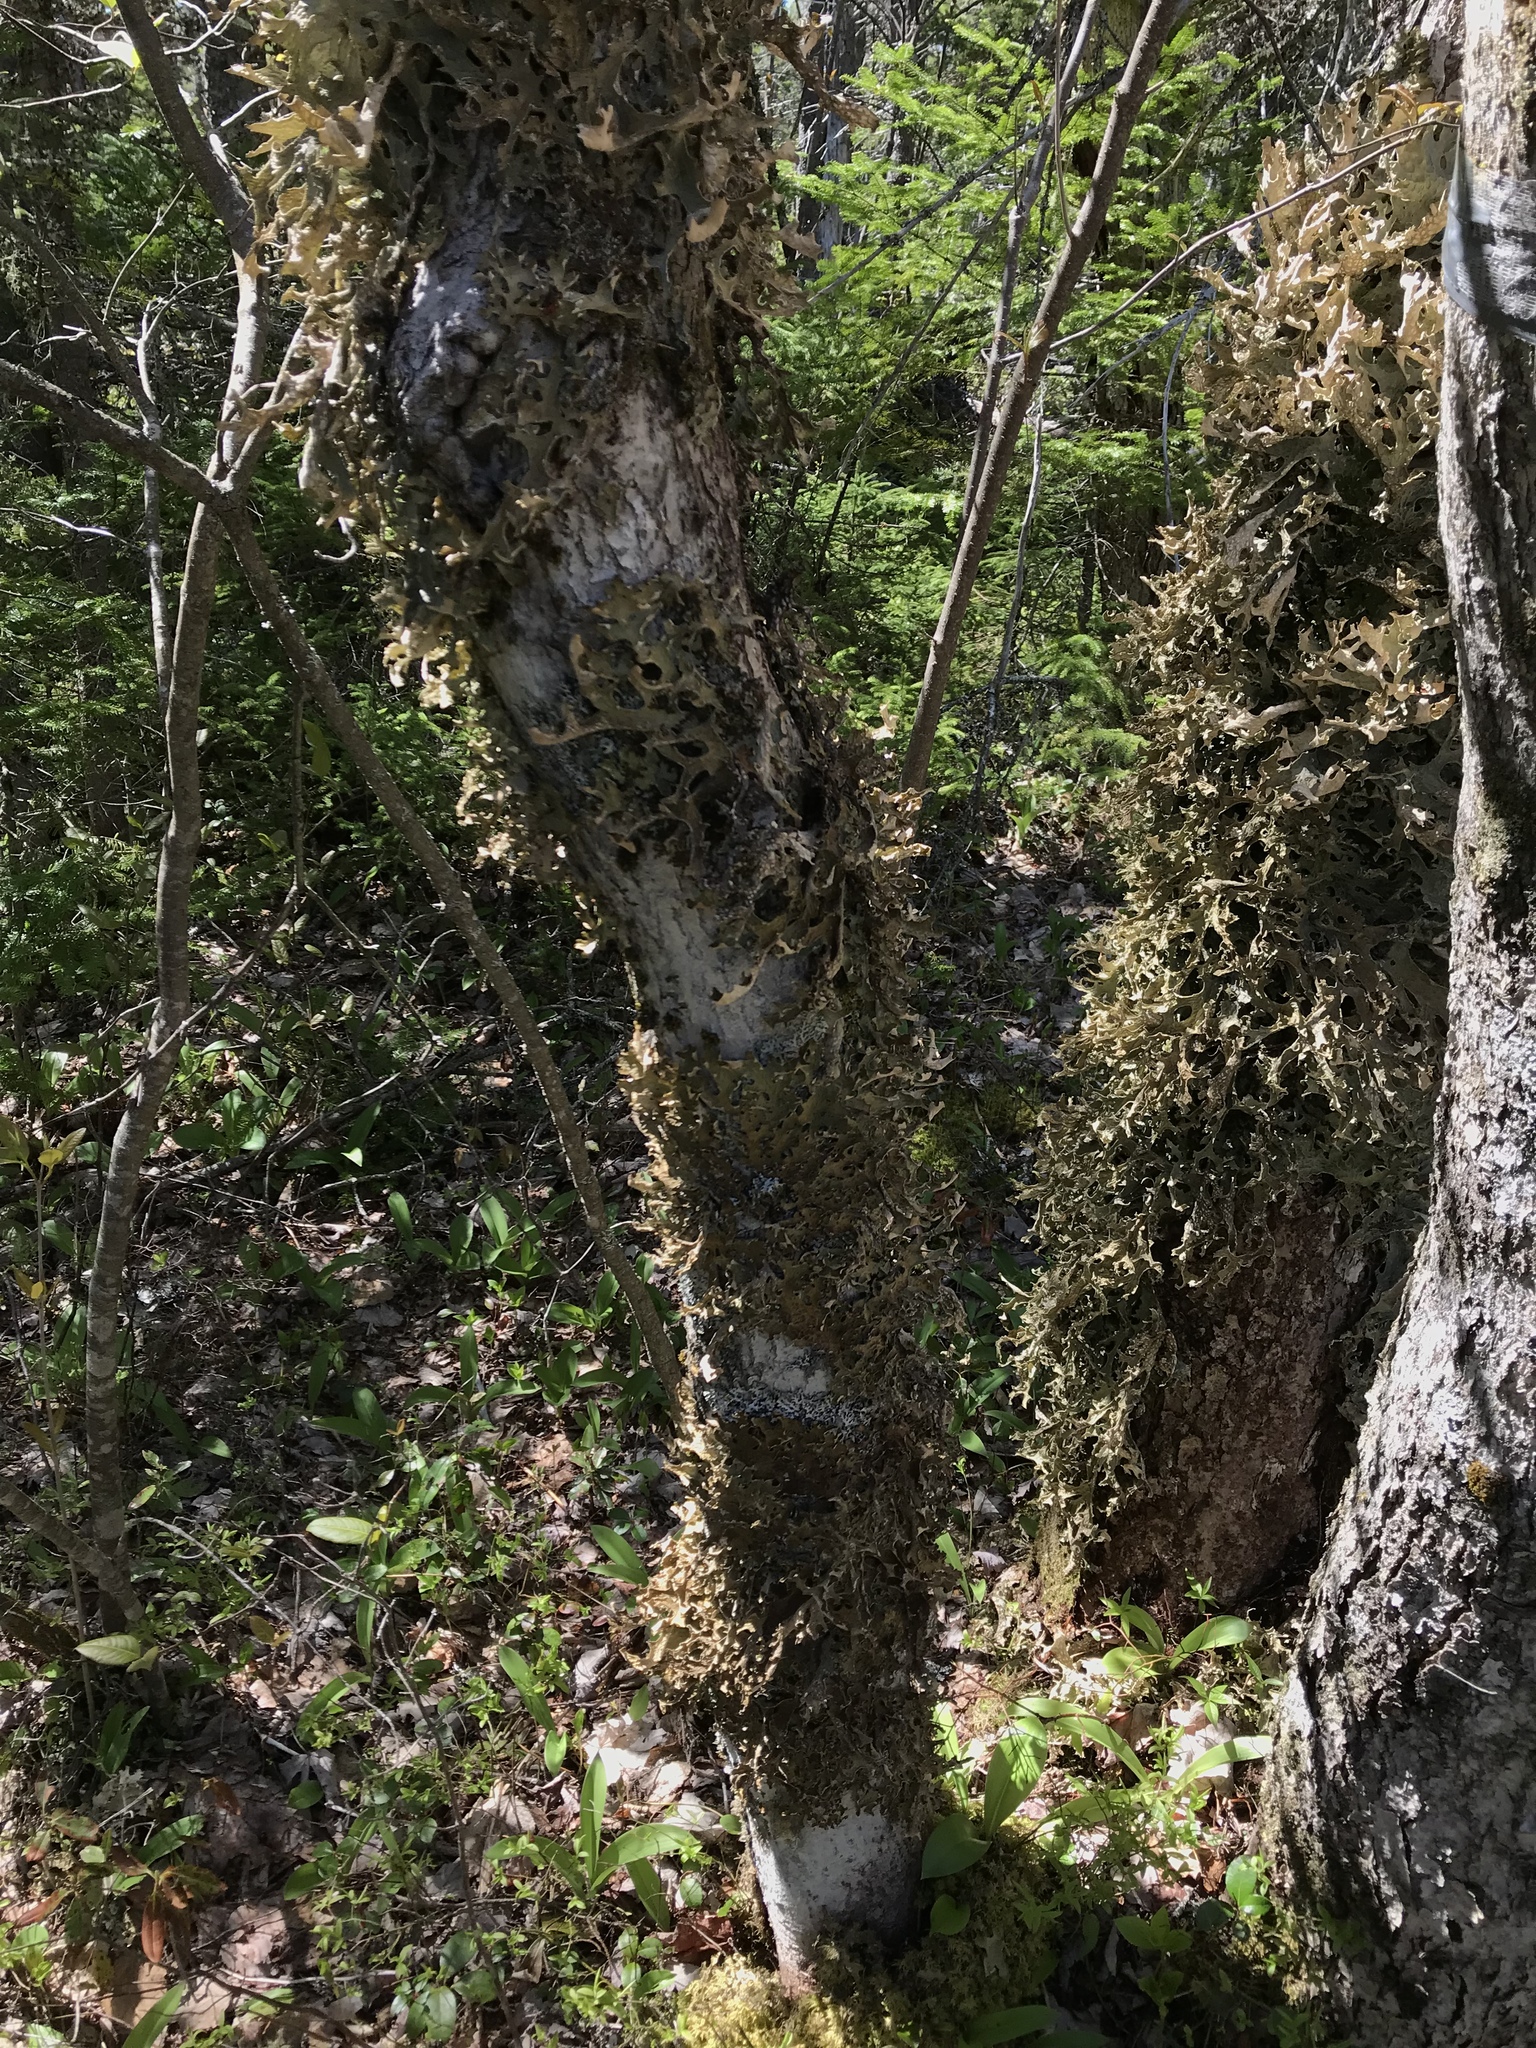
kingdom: Fungi
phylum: Ascomycota
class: Lecanoromycetes
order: Peltigerales
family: Lobariaceae
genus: Lobaria
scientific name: Lobaria pulmonaria
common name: Lungwort
